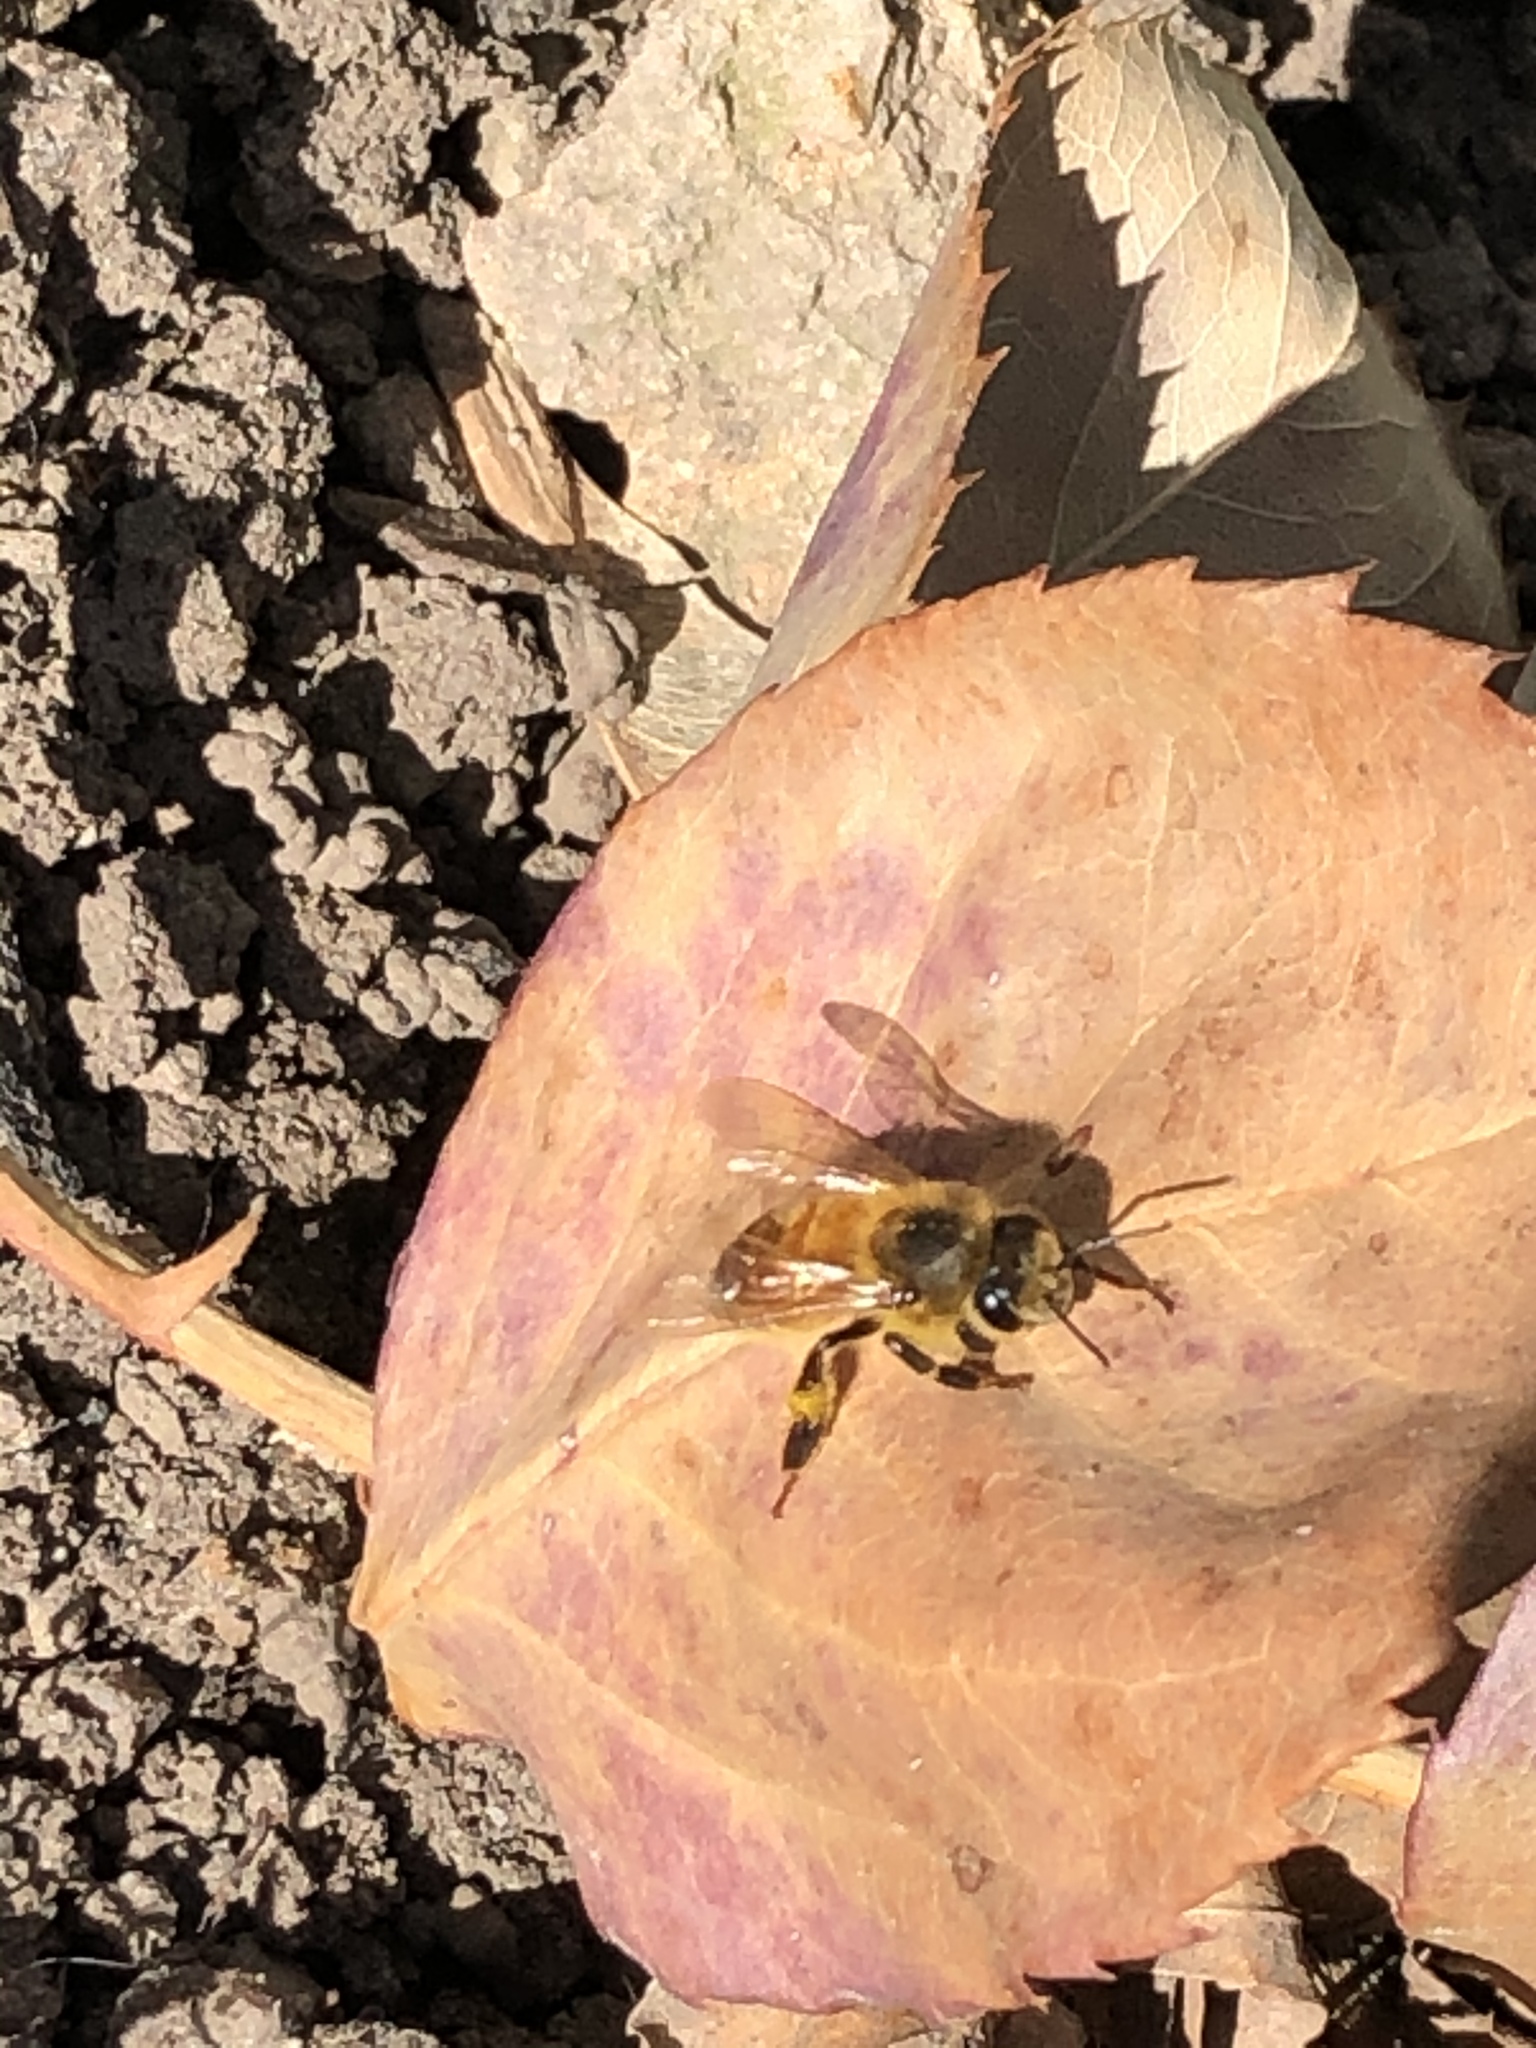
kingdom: Animalia
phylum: Arthropoda
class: Insecta
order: Hymenoptera
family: Apidae
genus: Apis
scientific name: Apis mellifera
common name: Honey bee
